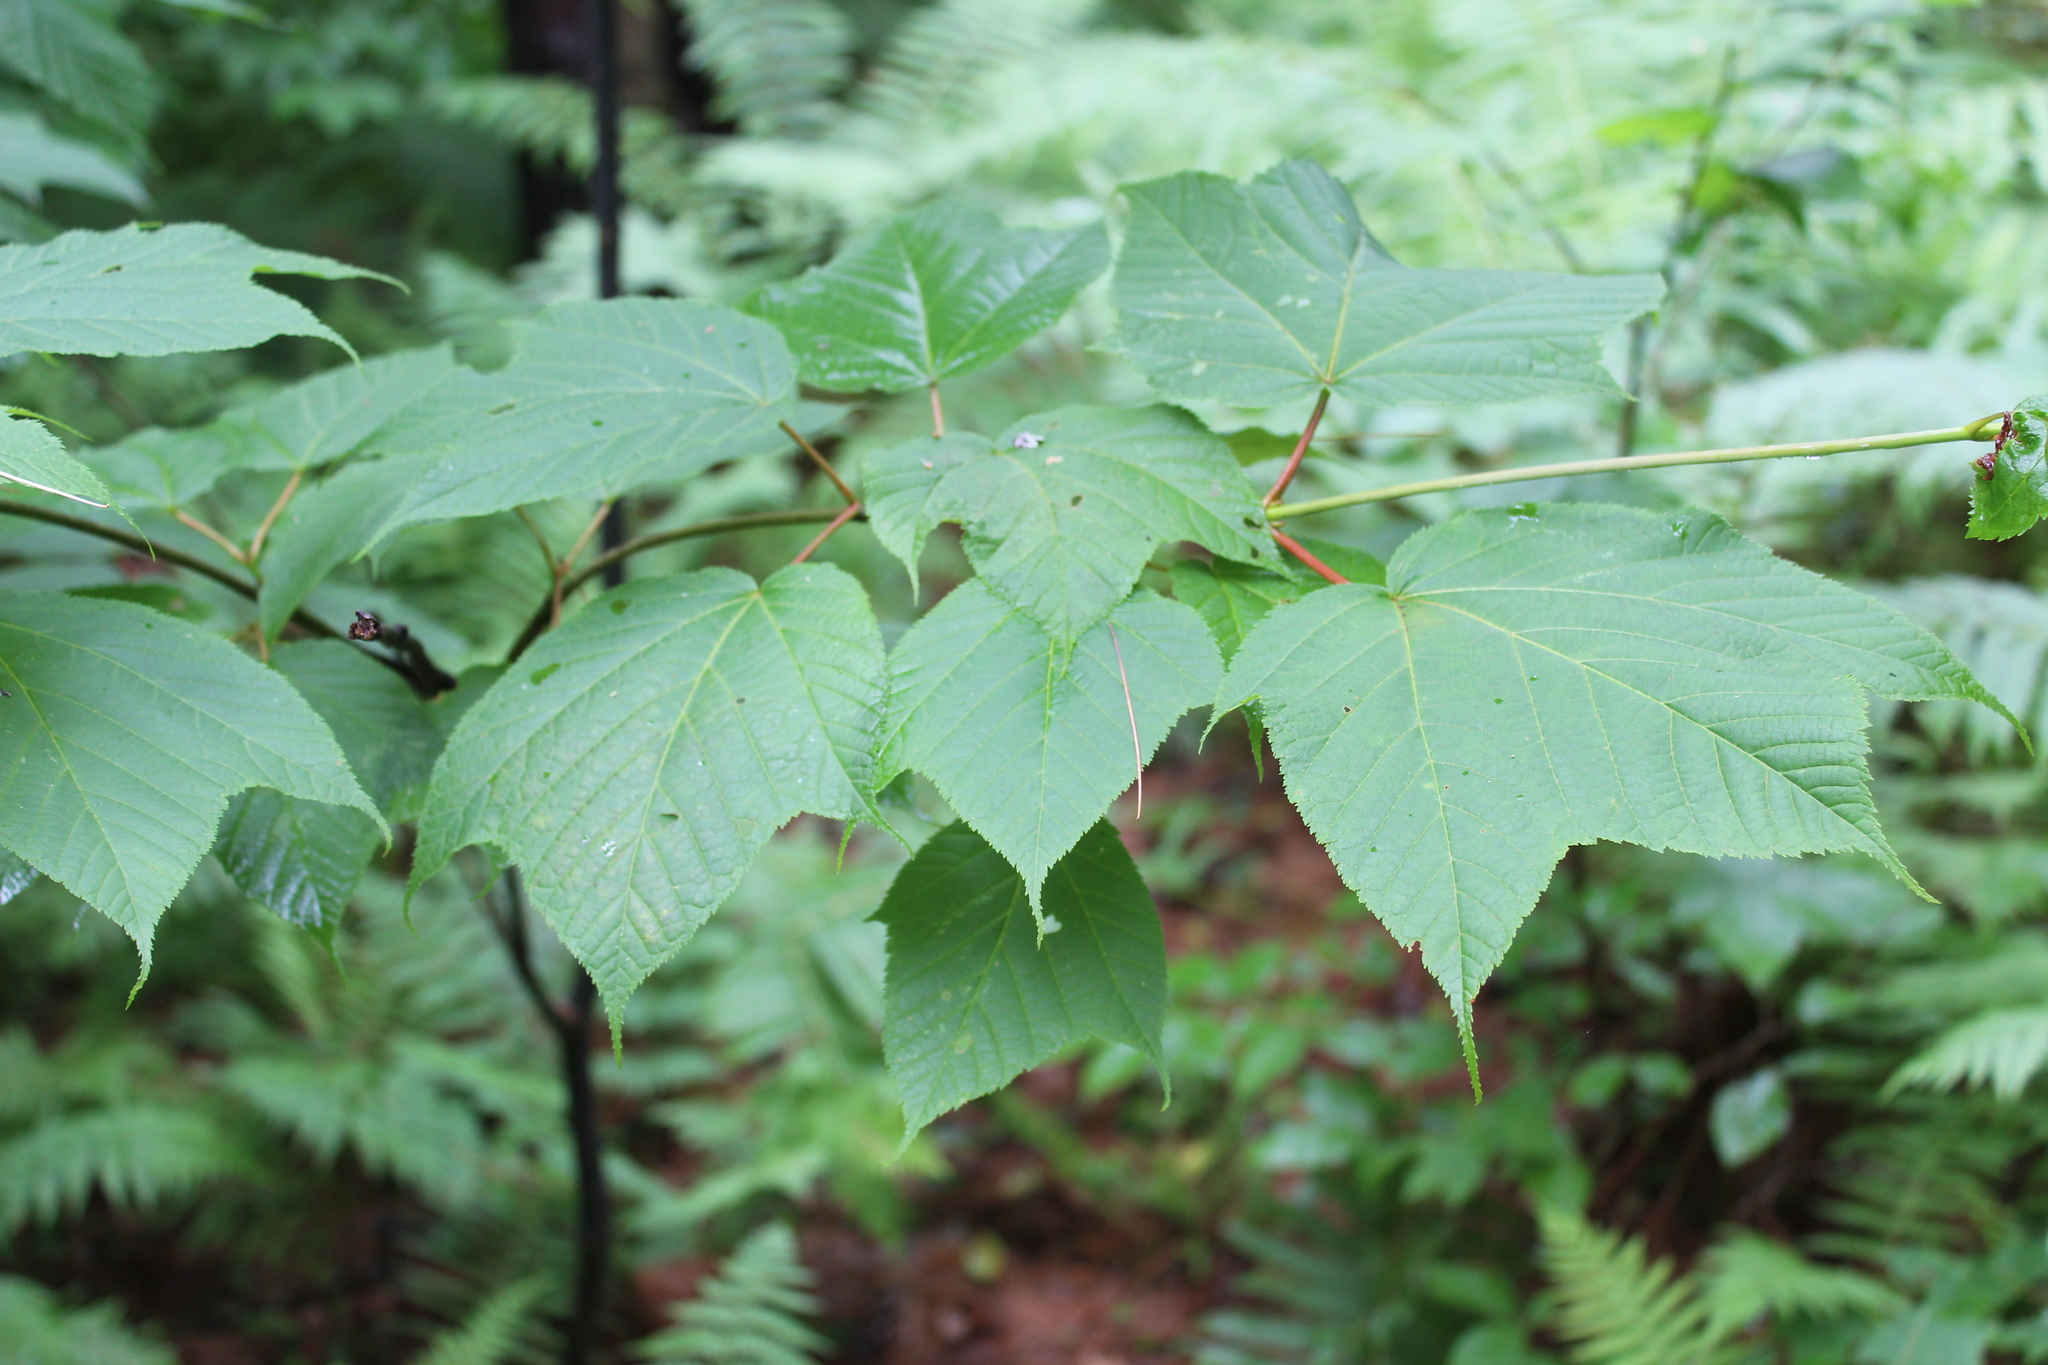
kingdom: Plantae
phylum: Tracheophyta
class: Magnoliopsida
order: Sapindales
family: Sapindaceae
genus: Acer
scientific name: Acer pensylvanicum
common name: Moosewood
